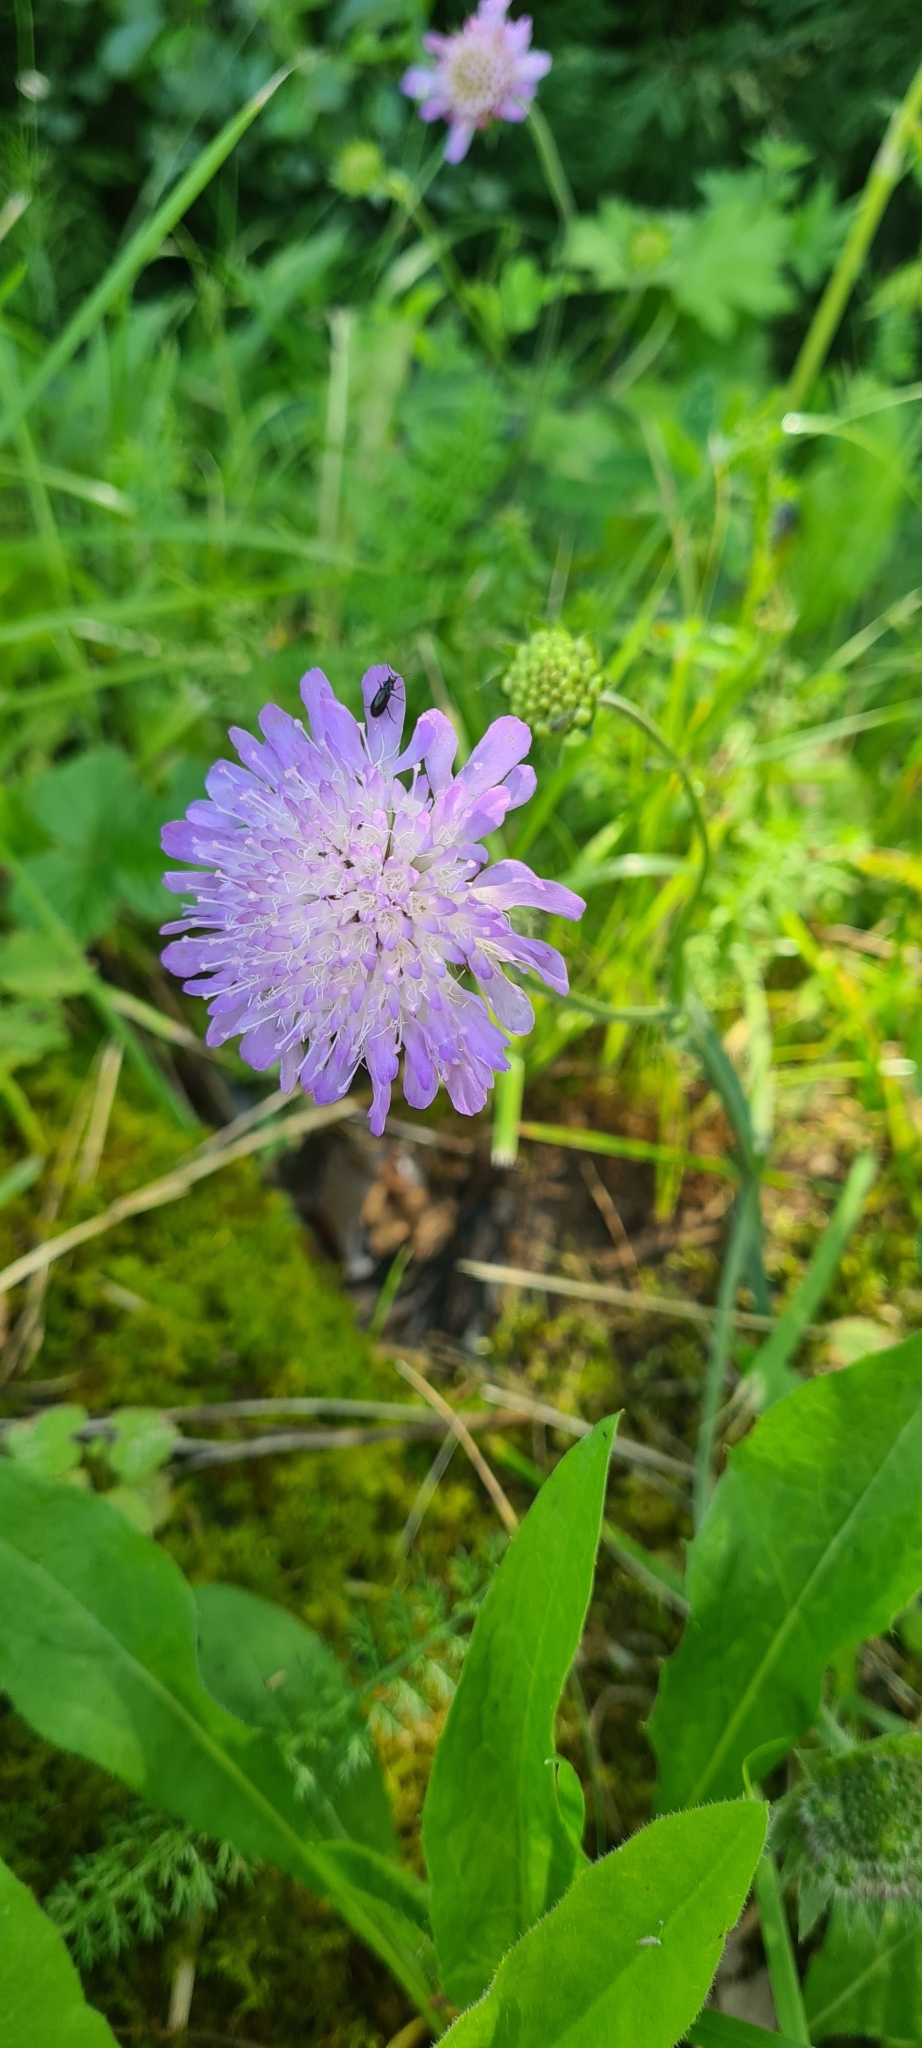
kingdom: Plantae
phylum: Tracheophyta
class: Magnoliopsida
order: Dipsacales
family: Caprifoliaceae
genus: Knautia
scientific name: Knautia arvensis
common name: Field scabiosa
